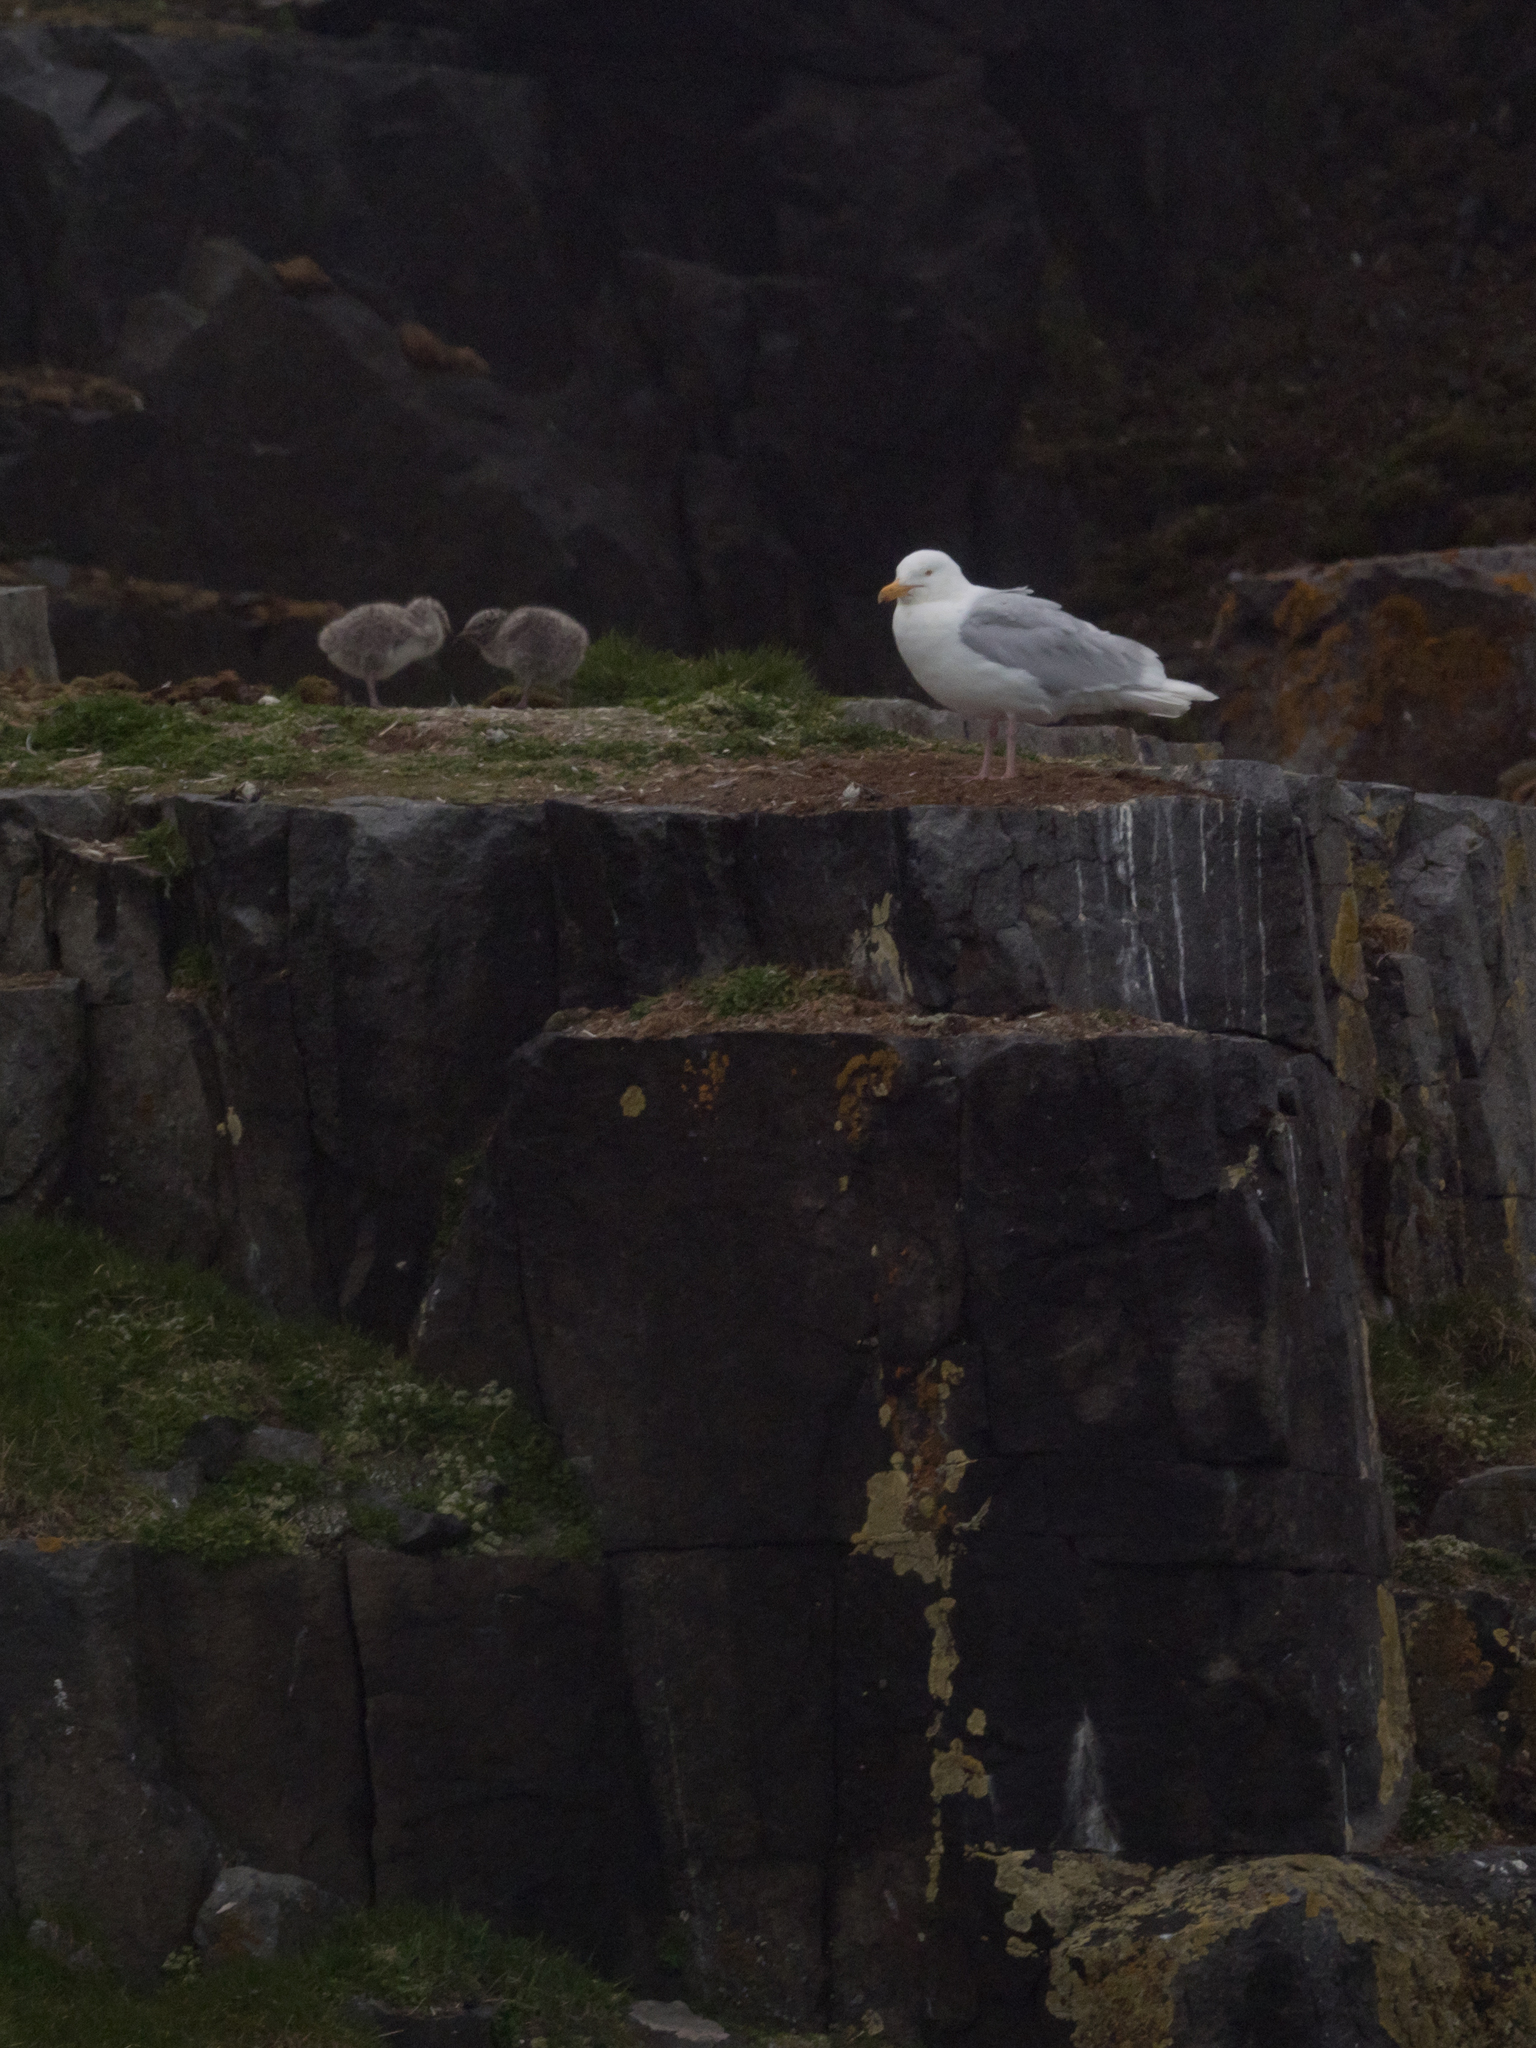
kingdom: Animalia
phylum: Chordata
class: Aves
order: Charadriiformes
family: Laridae
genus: Larus
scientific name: Larus hyperboreus
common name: Glaucous gull
